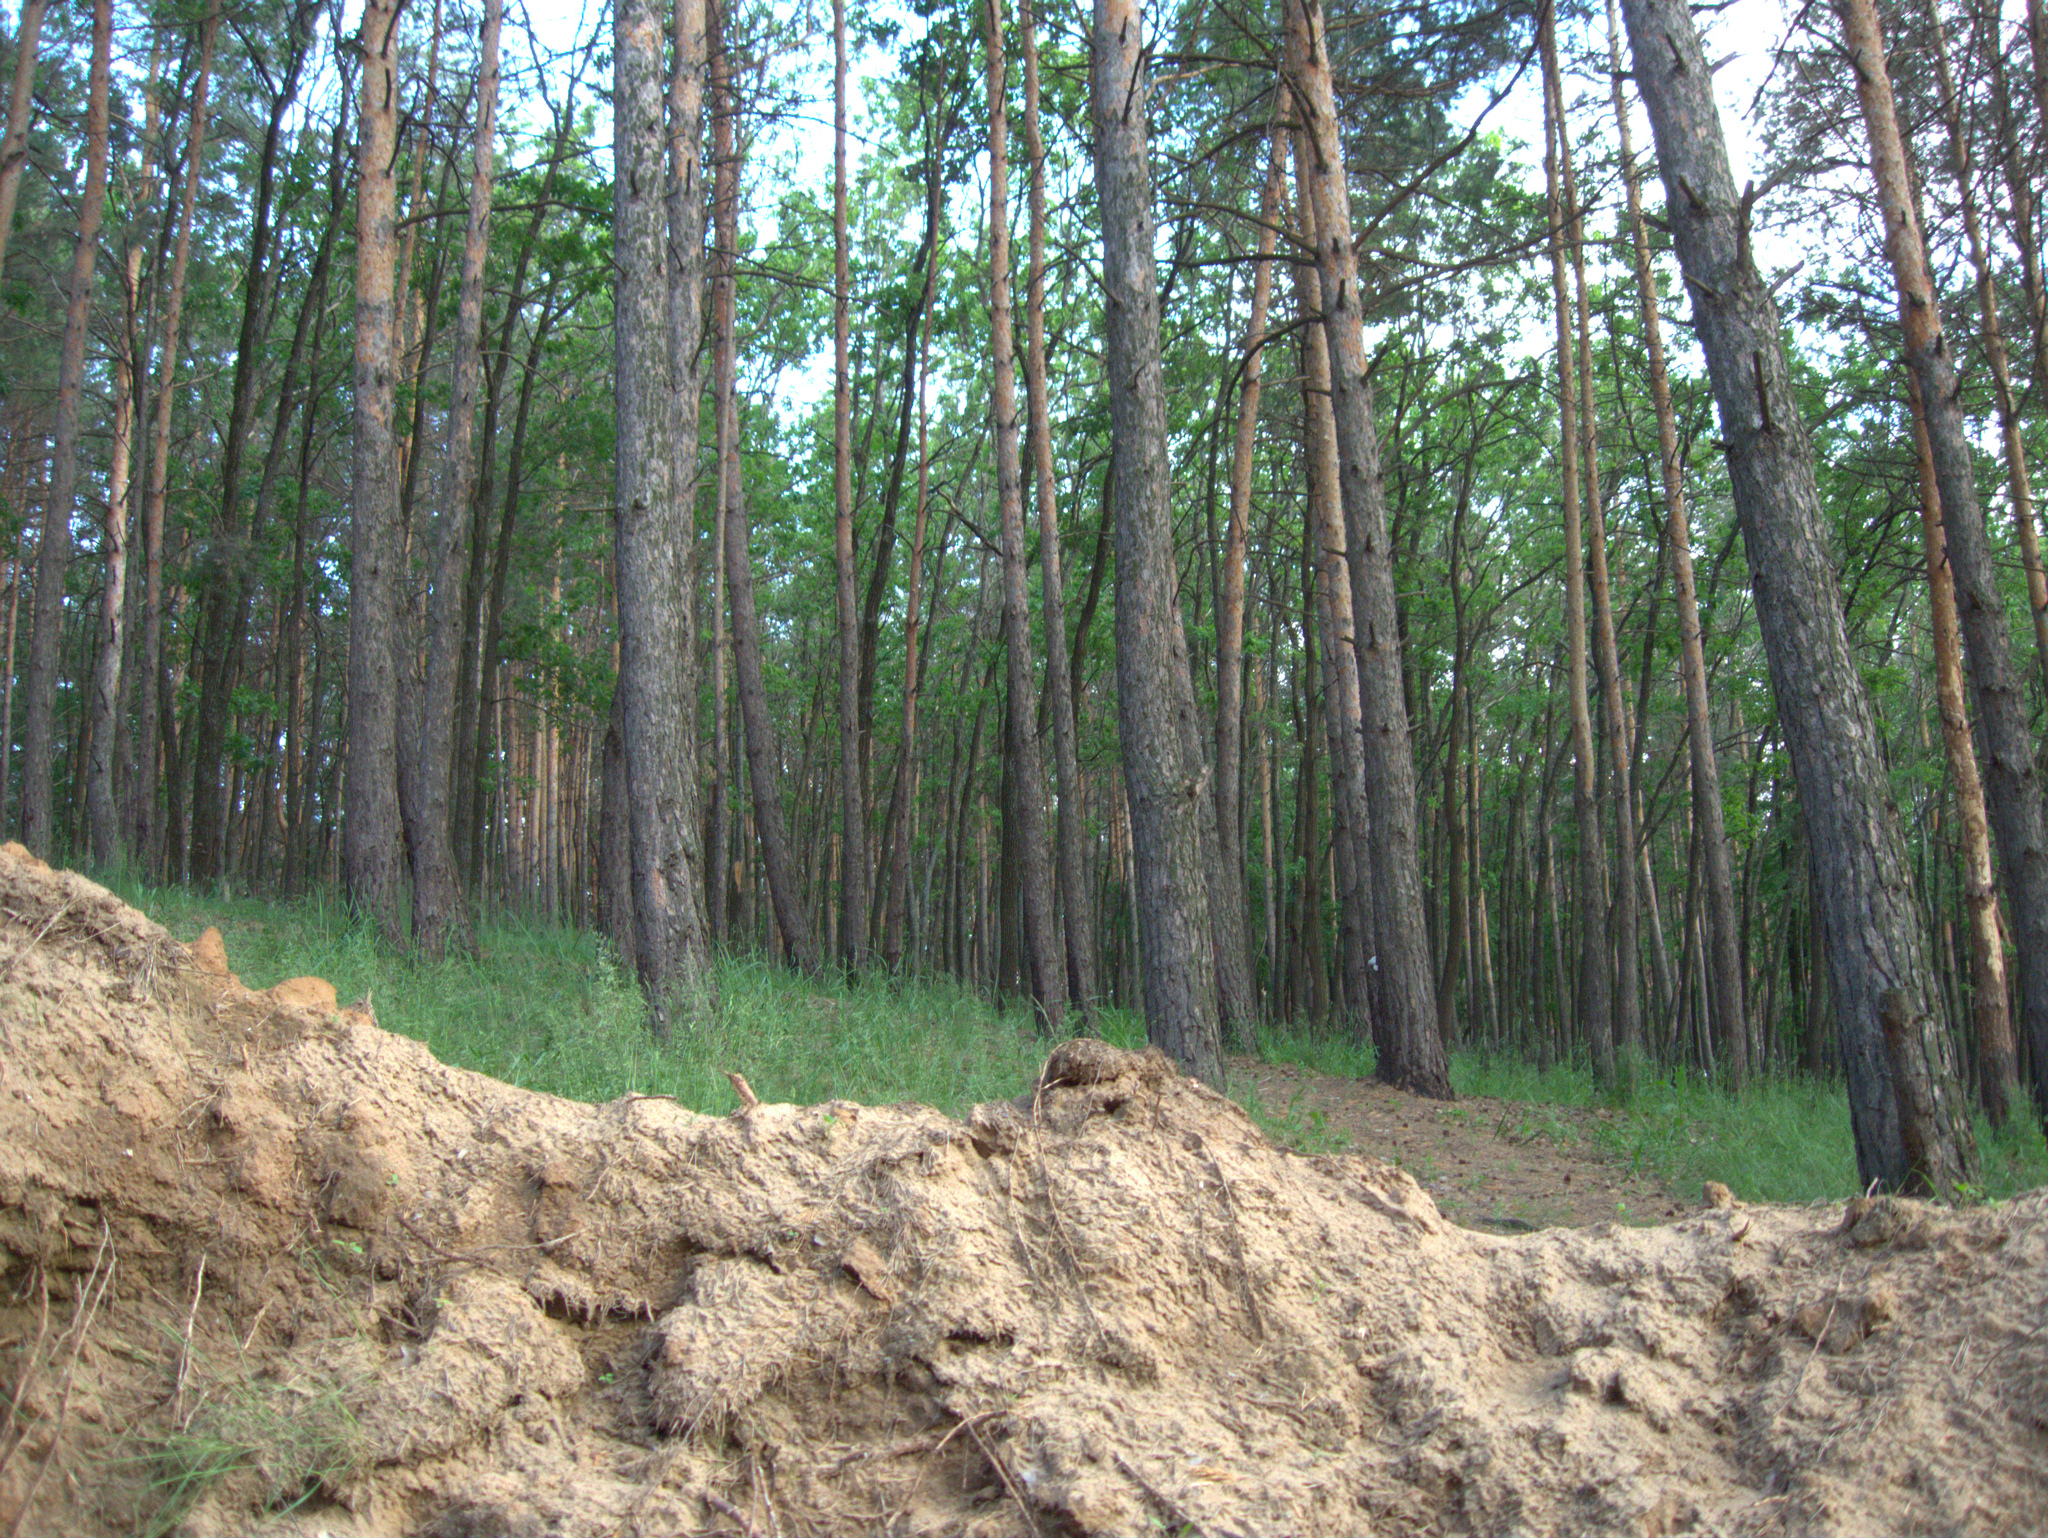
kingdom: Plantae
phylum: Tracheophyta
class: Pinopsida
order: Pinales
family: Pinaceae
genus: Pinus
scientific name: Pinus sylvestris
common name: Scots pine
